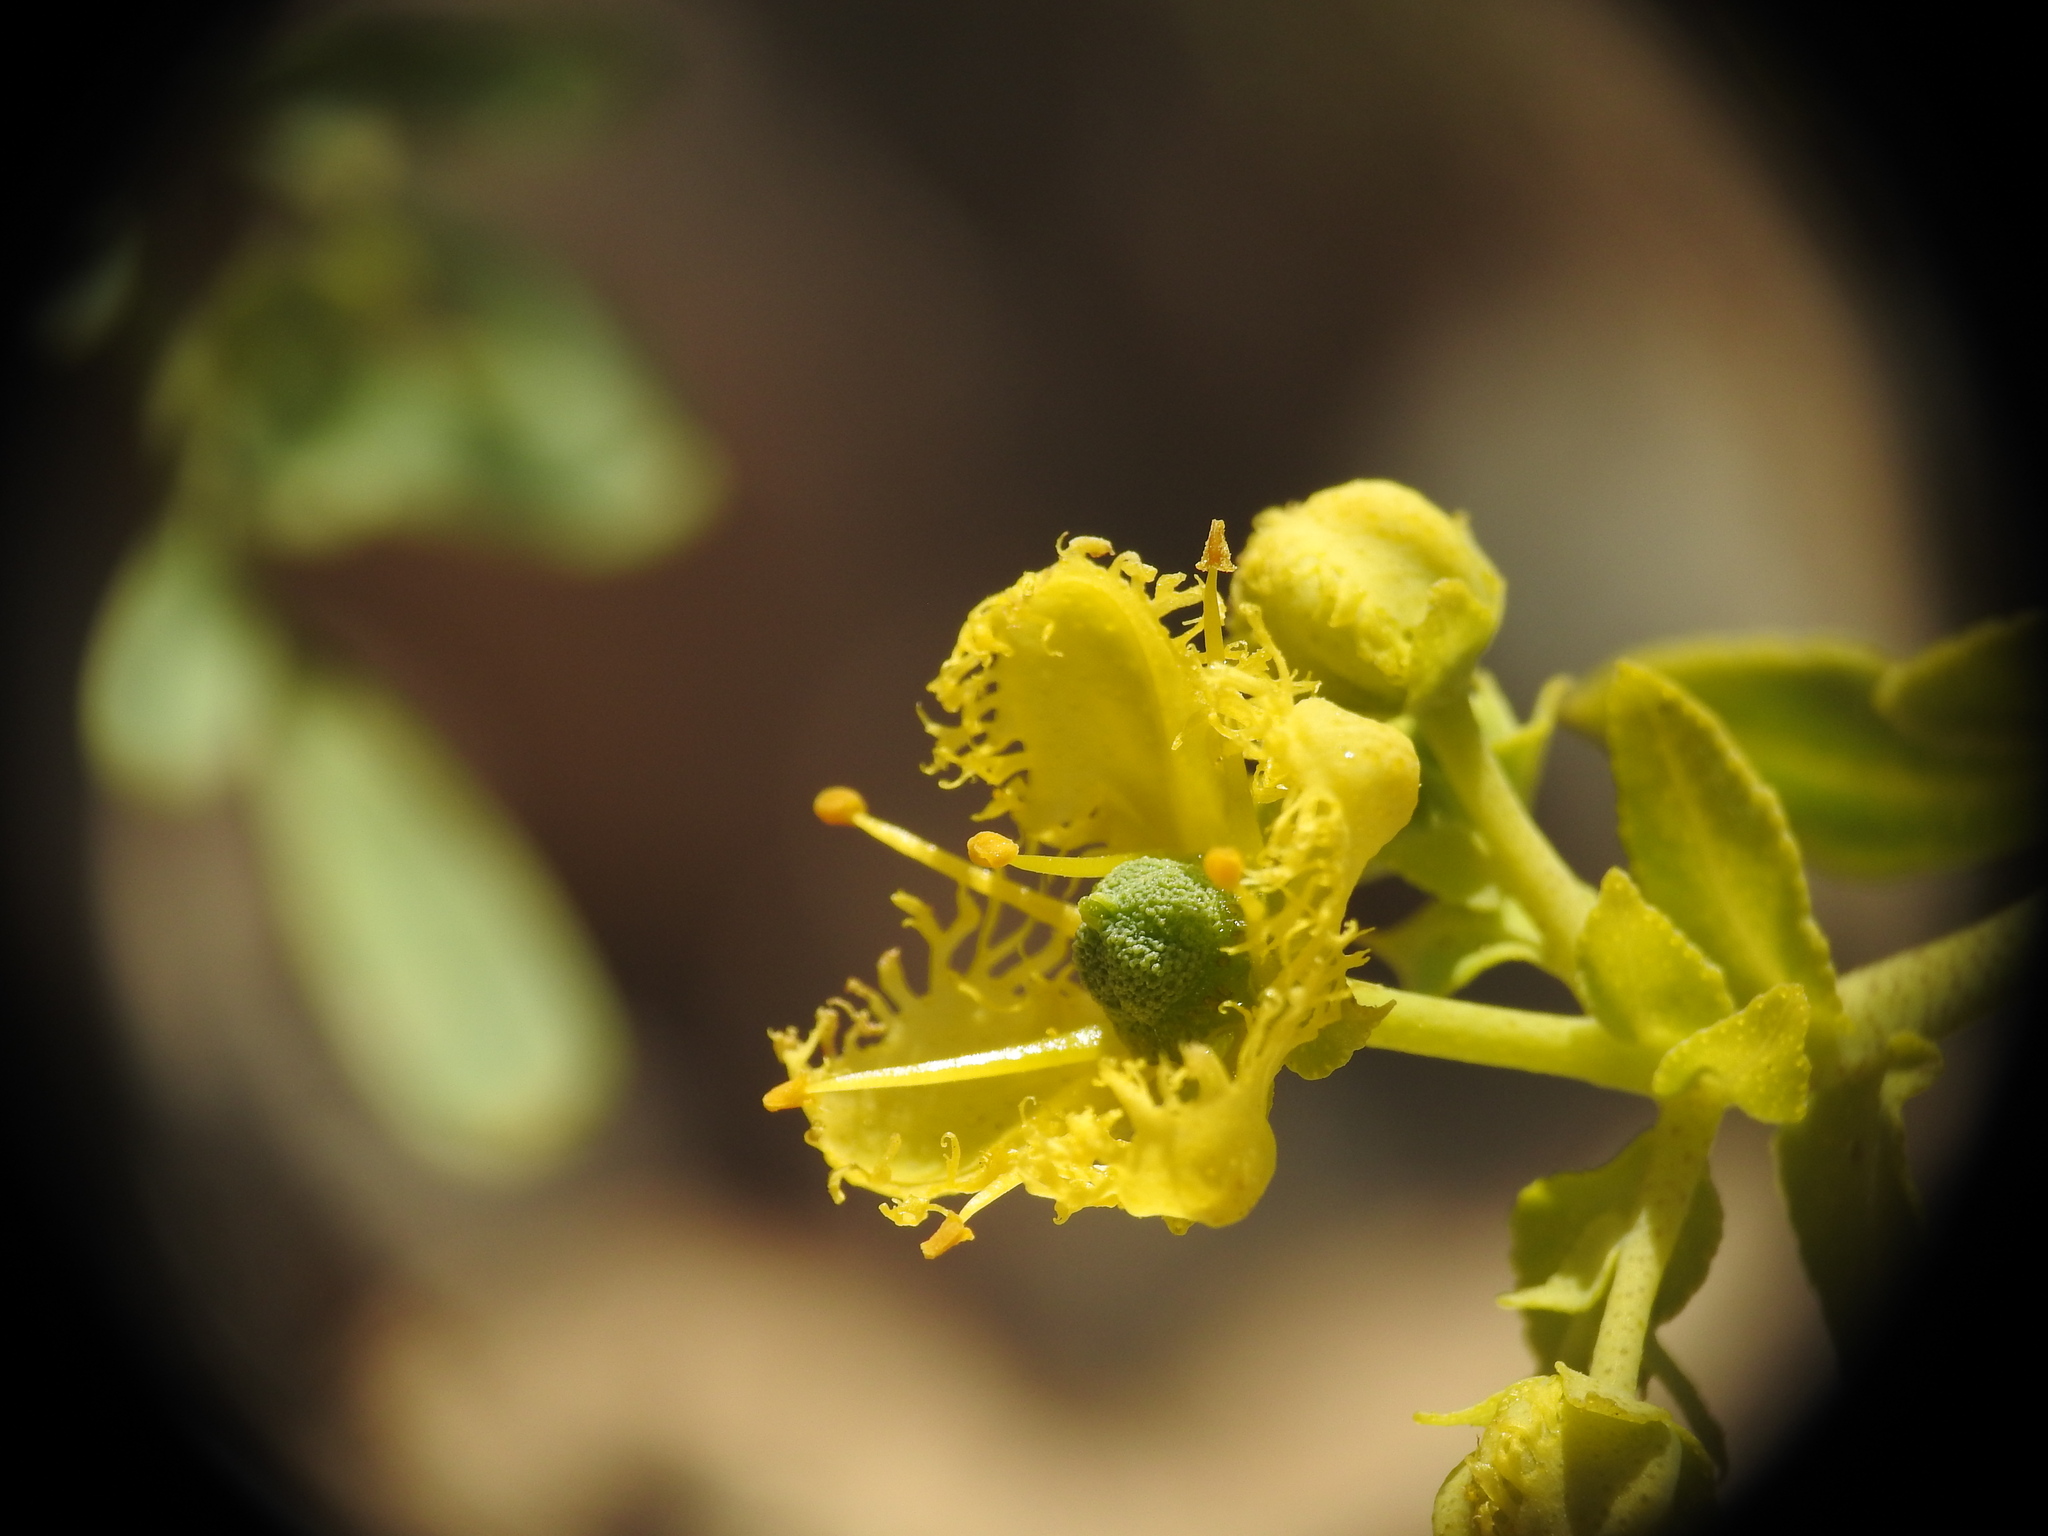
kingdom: Plantae
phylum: Tracheophyta
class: Magnoliopsida
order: Sapindales
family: Rutaceae
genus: Ruta
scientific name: Ruta chalepensis
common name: Fringed rue
